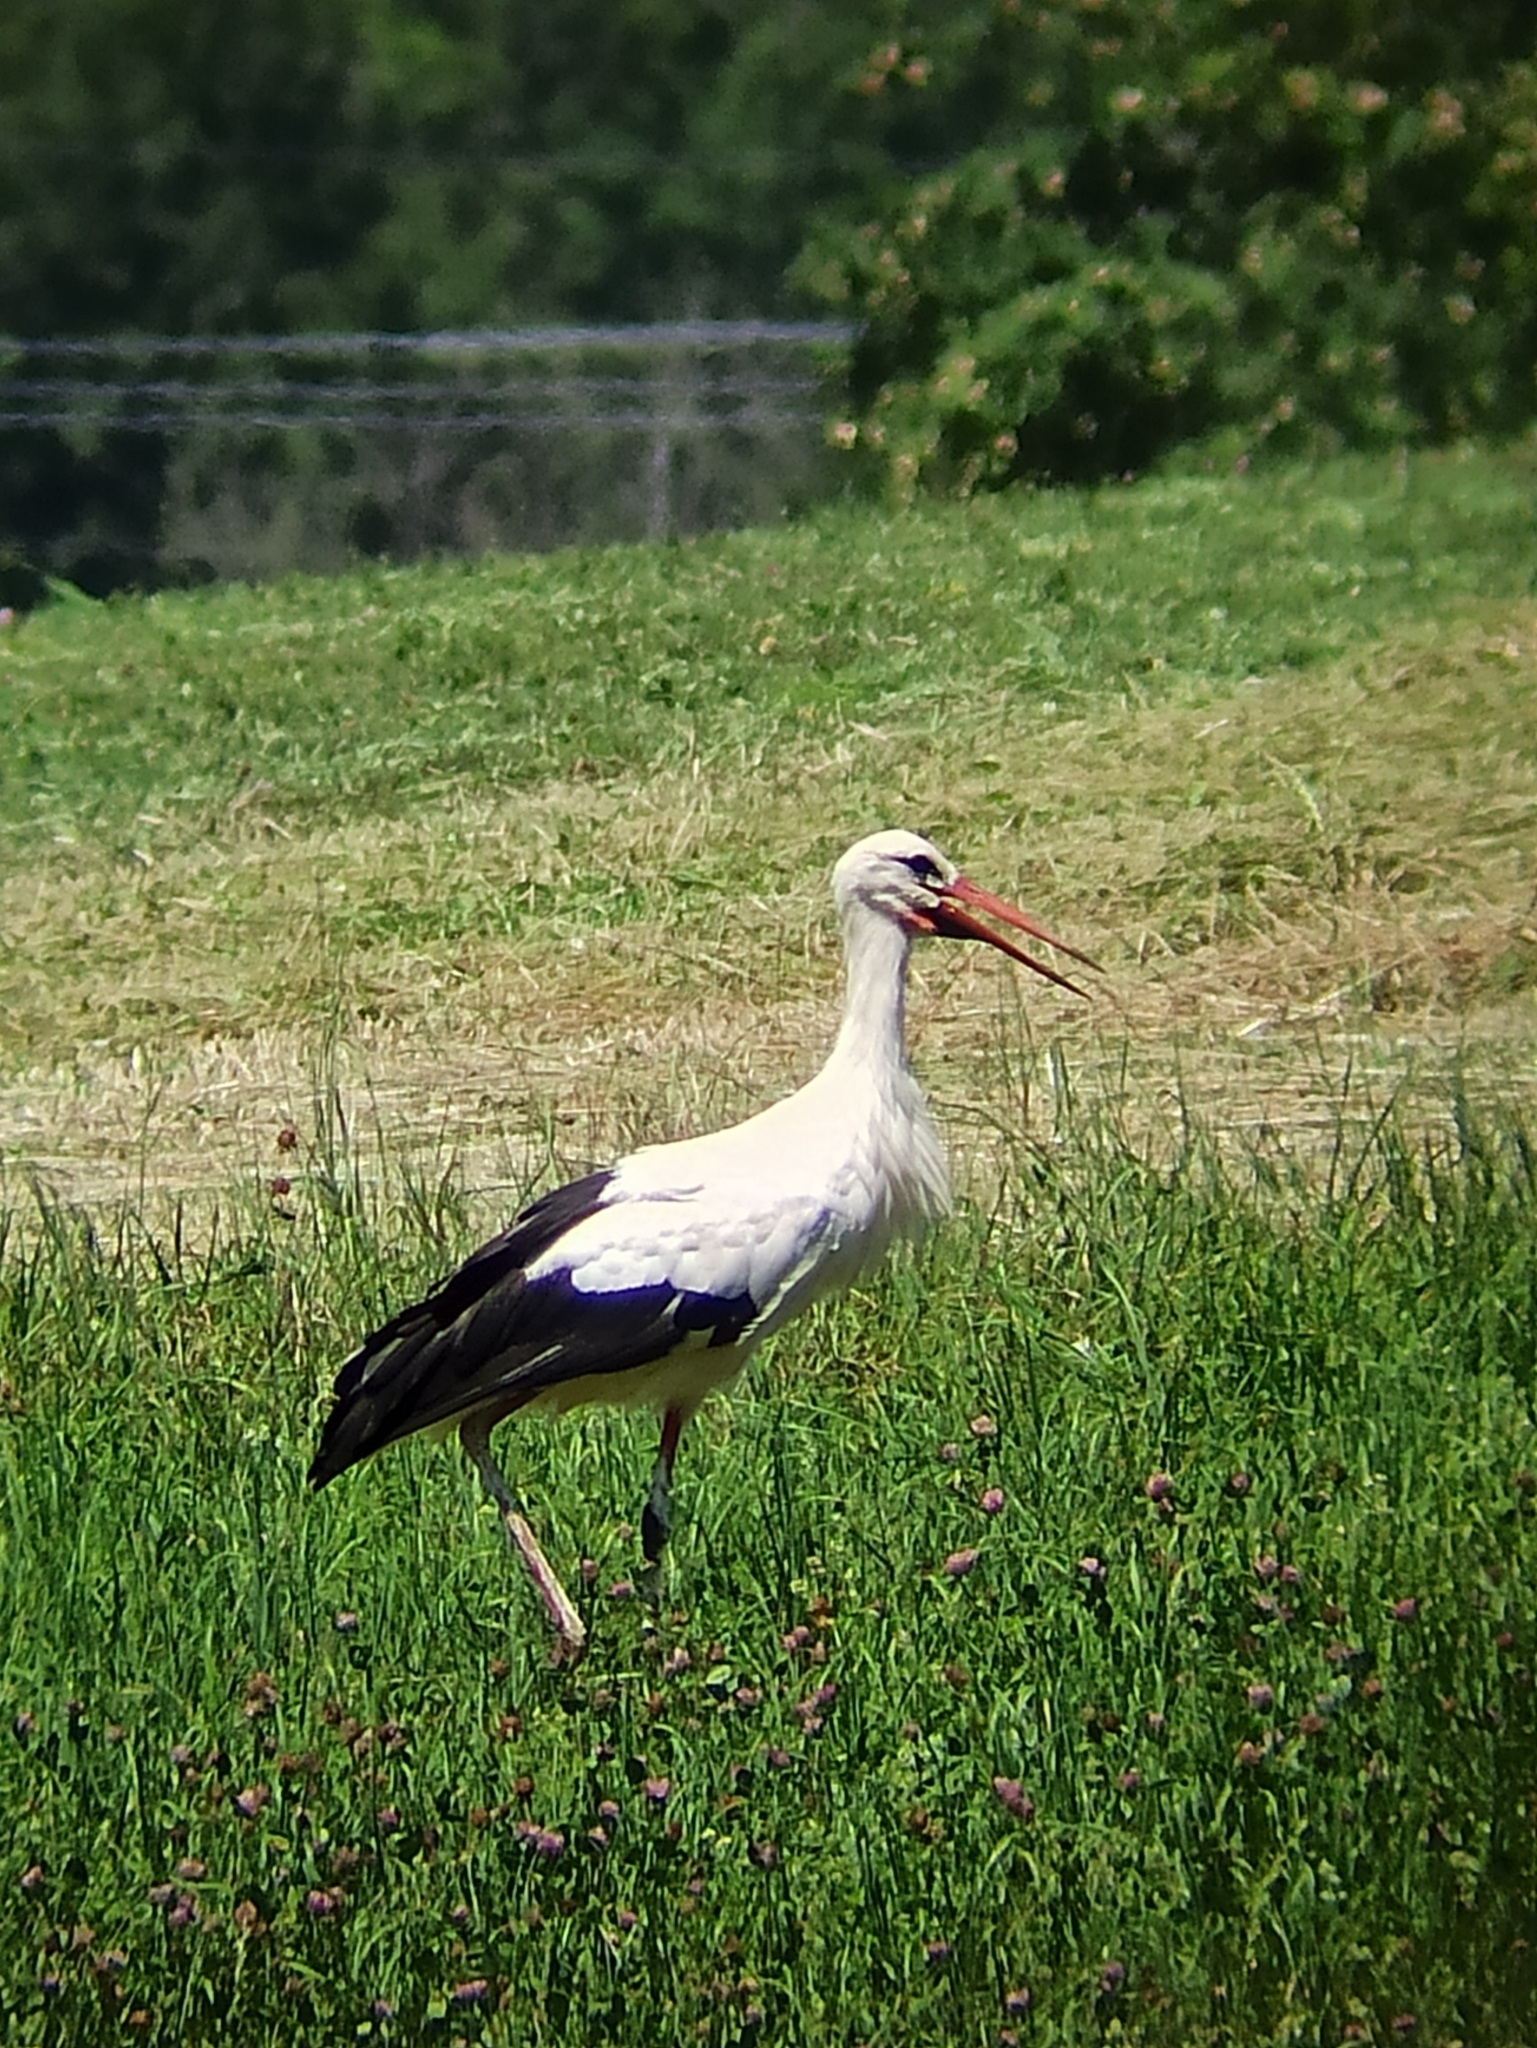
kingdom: Animalia
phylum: Chordata
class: Aves
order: Ciconiiformes
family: Ciconiidae
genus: Ciconia
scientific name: Ciconia ciconia
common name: White stork
